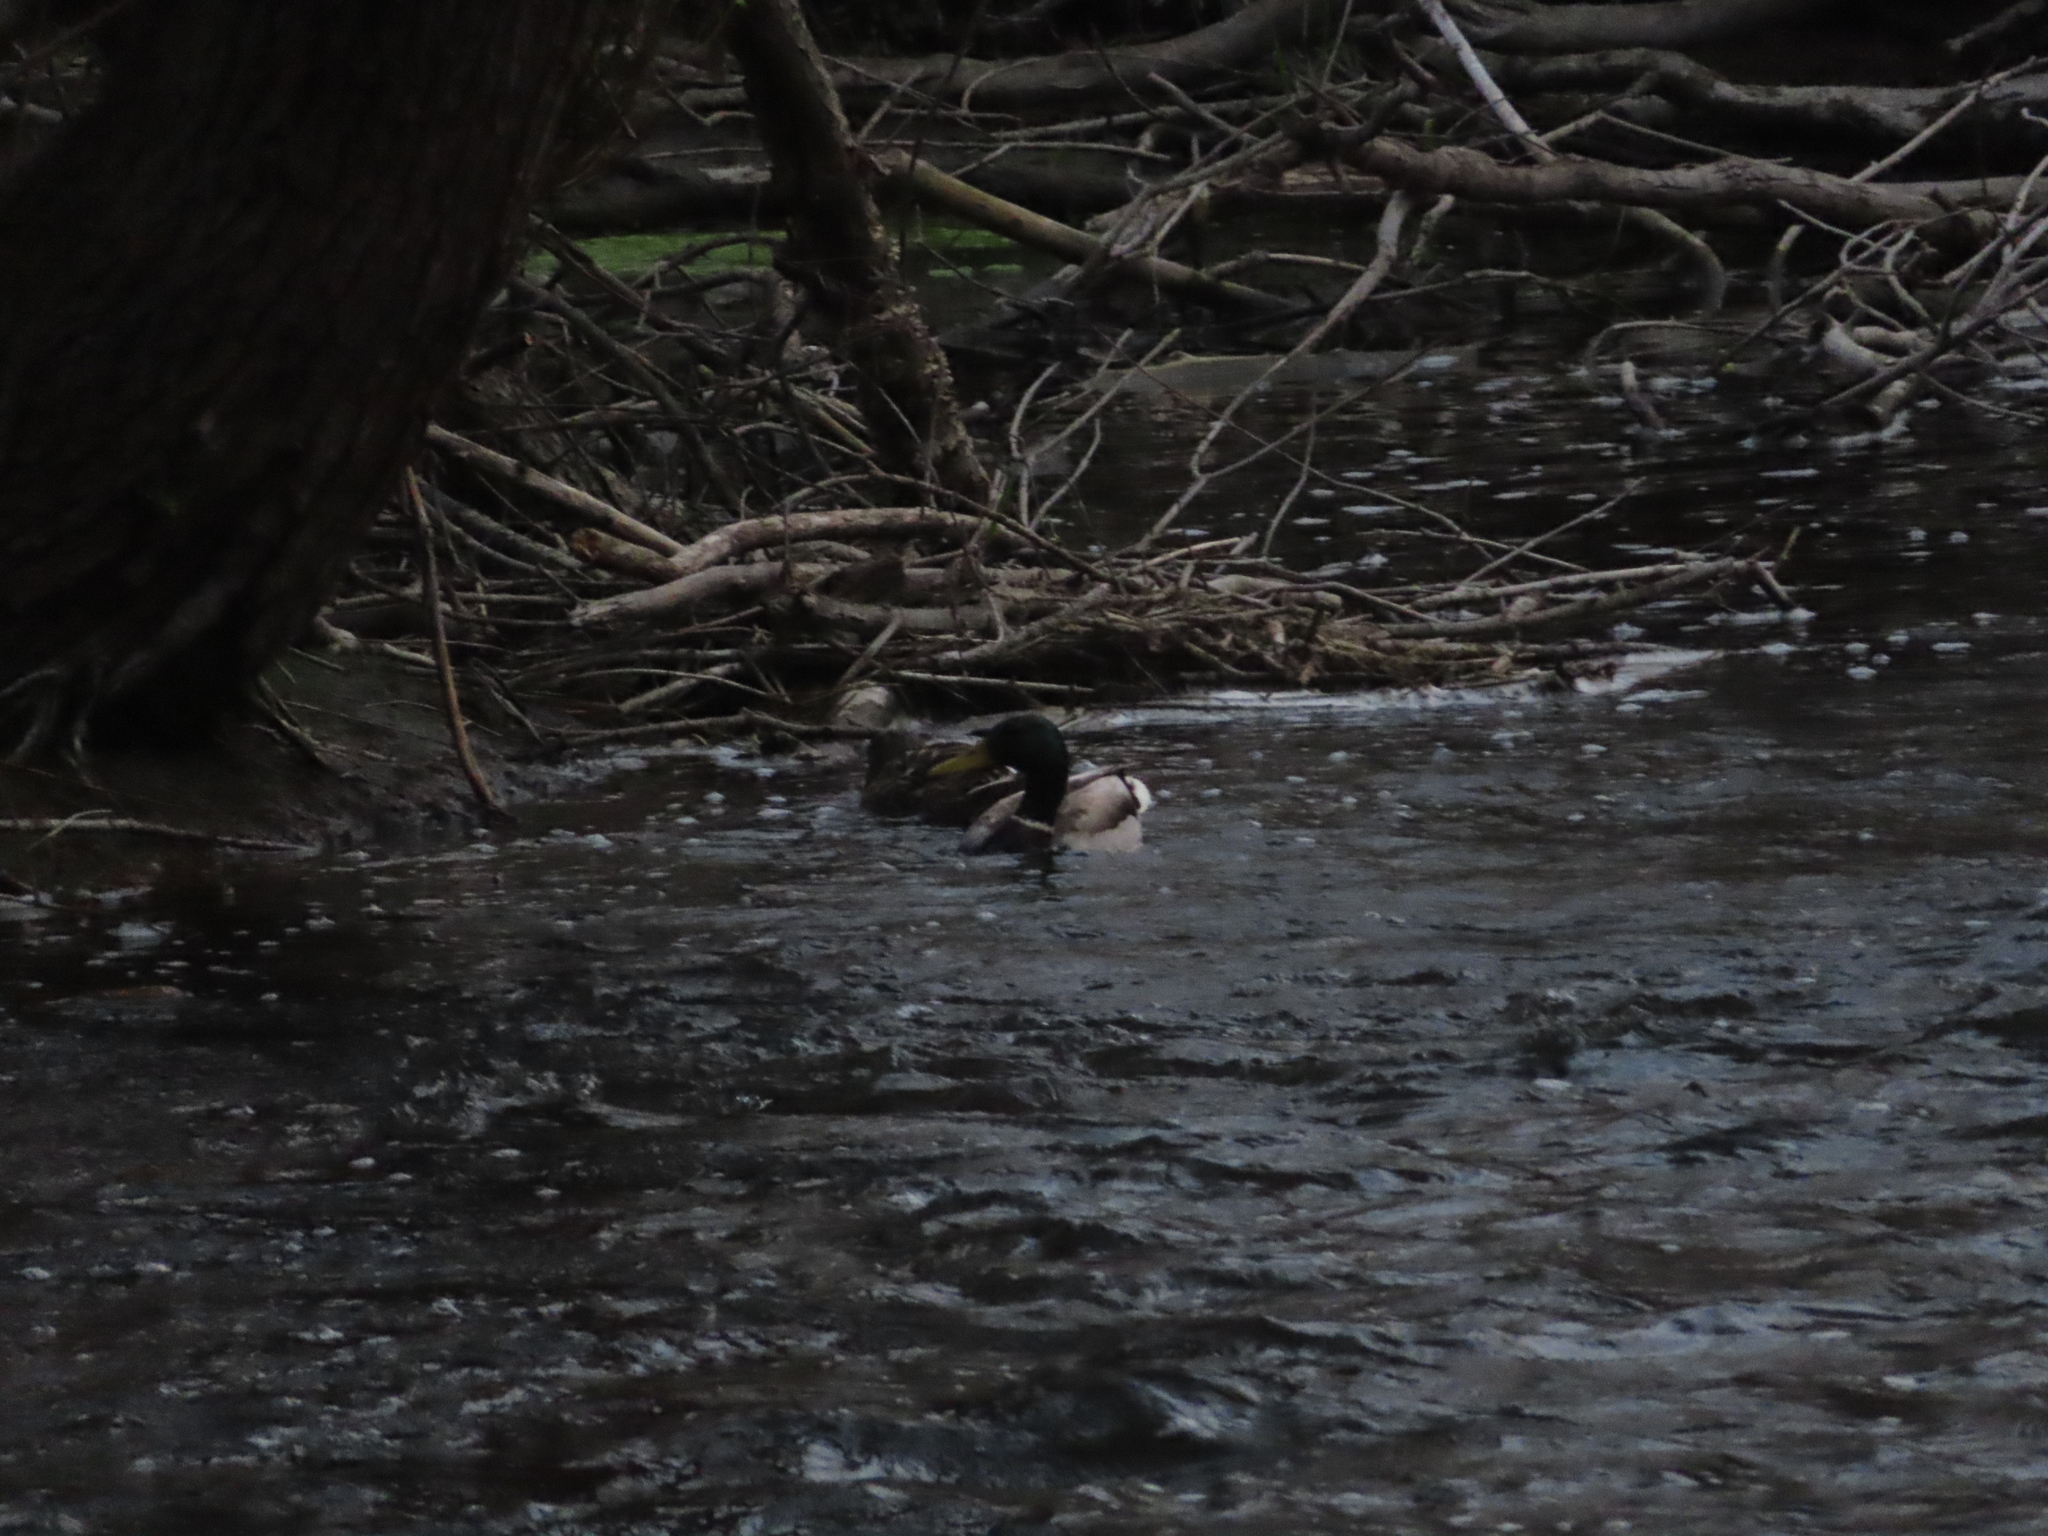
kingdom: Animalia
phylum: Chordata
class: Aves
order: Anseriformes
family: Anatidae
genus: Anas
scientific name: Anas platyrhynchos
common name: Mallard
